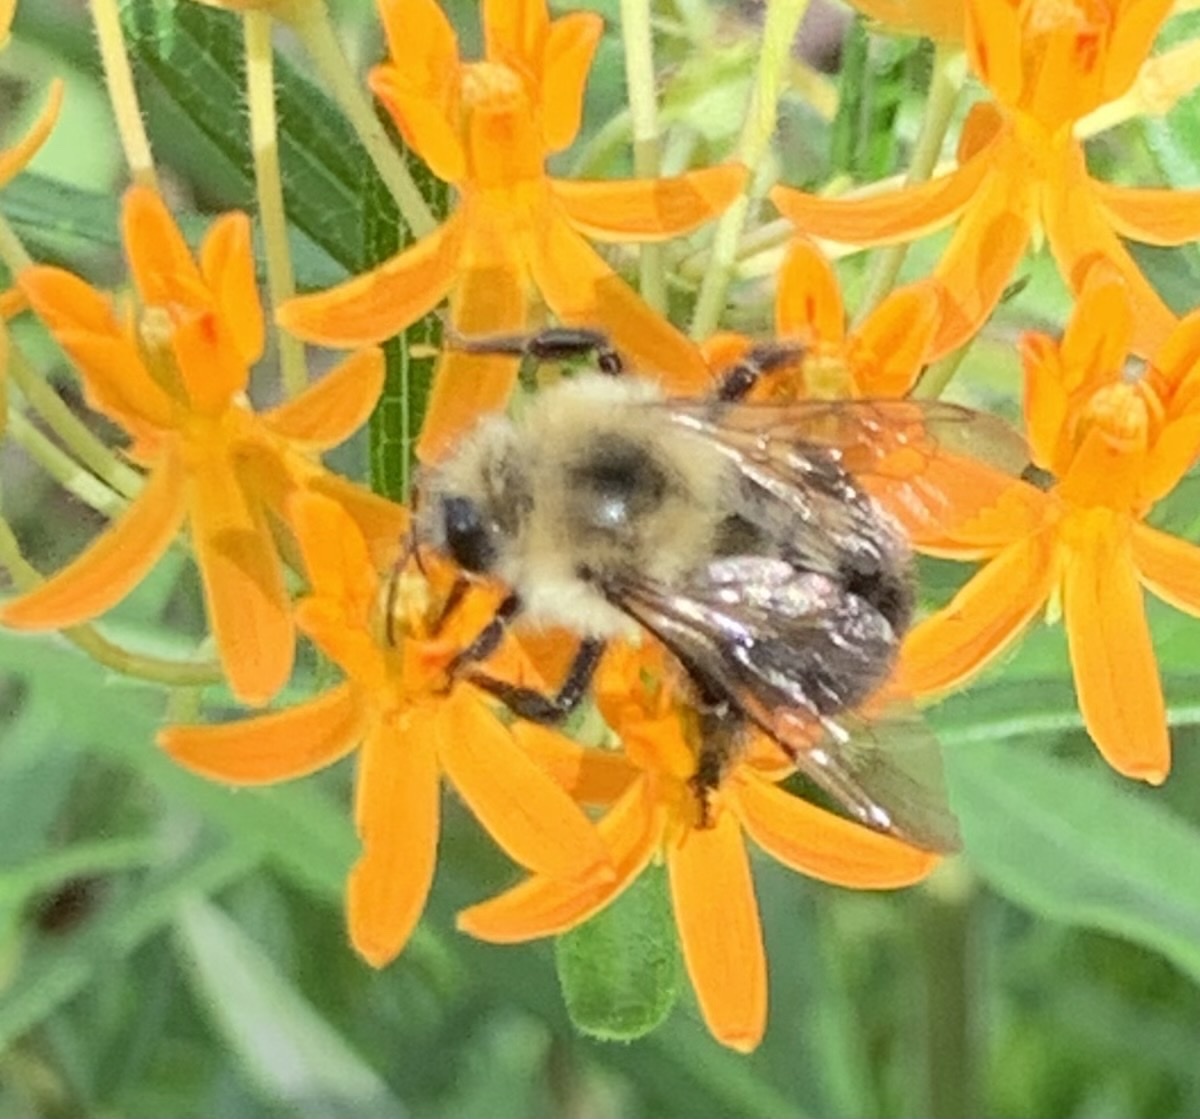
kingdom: Animalia
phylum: Arthropoda
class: Insecta
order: Hymenoptera
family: Apidae
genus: Bombus
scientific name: Bombus bimaculatus
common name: Two-spotted bumble bee
